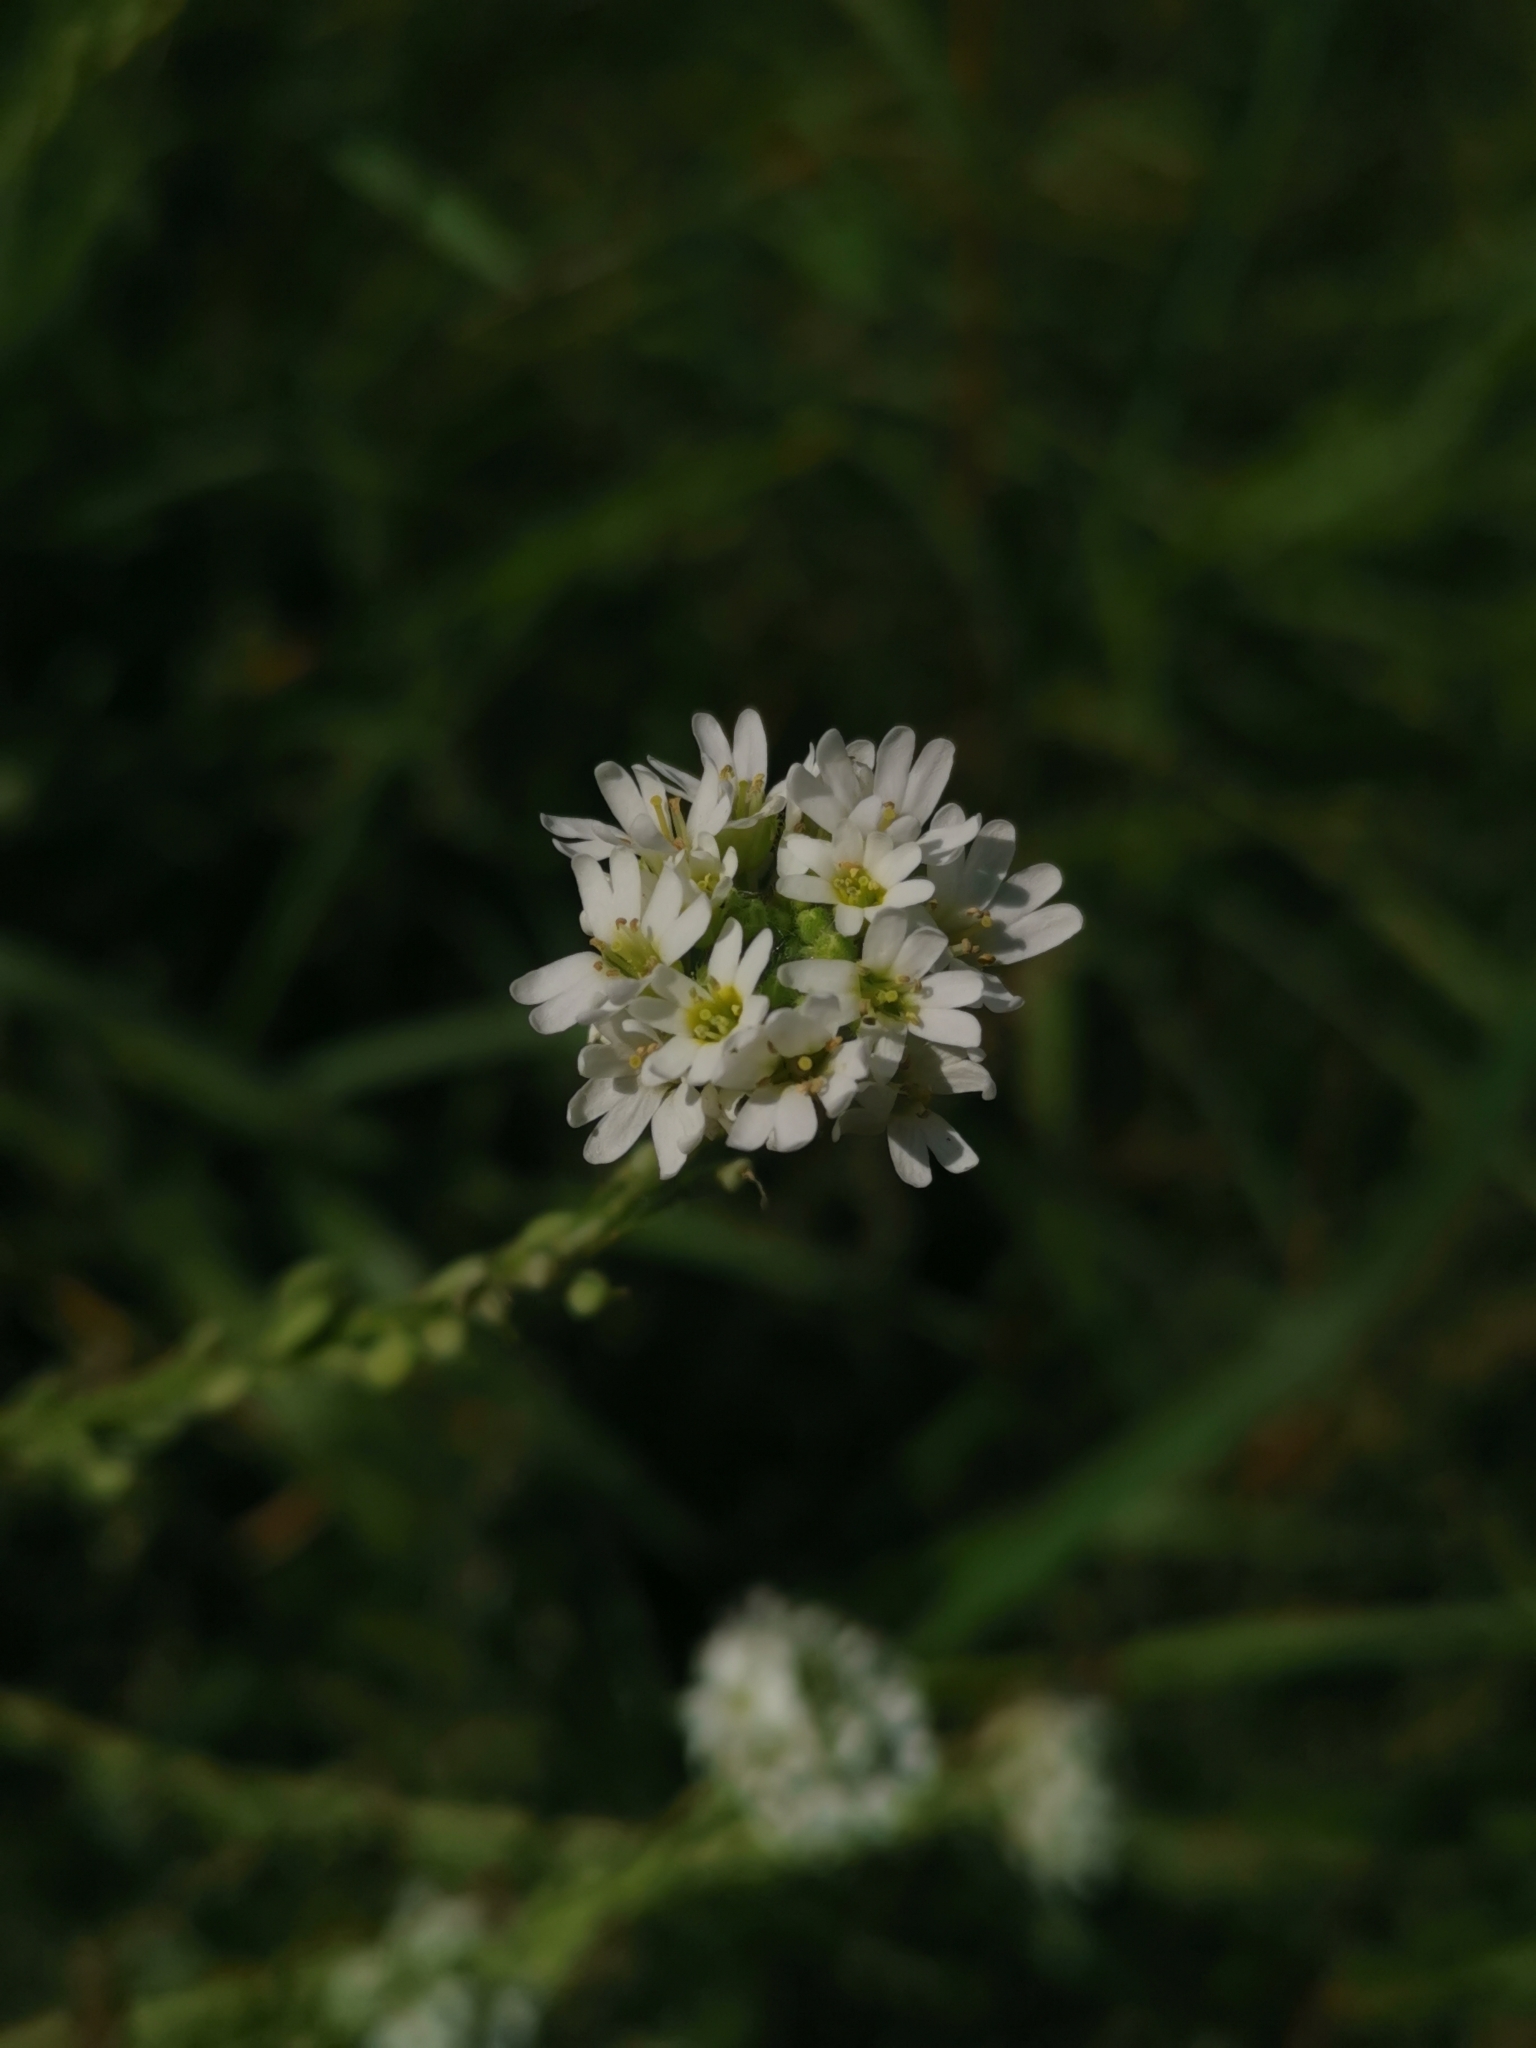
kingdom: Plantae
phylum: Tracheophyta
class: Magnoliopsida
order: Brassicales
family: Brassicaceae
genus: Berteroa
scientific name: Berteroa incana
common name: Hoary alison
